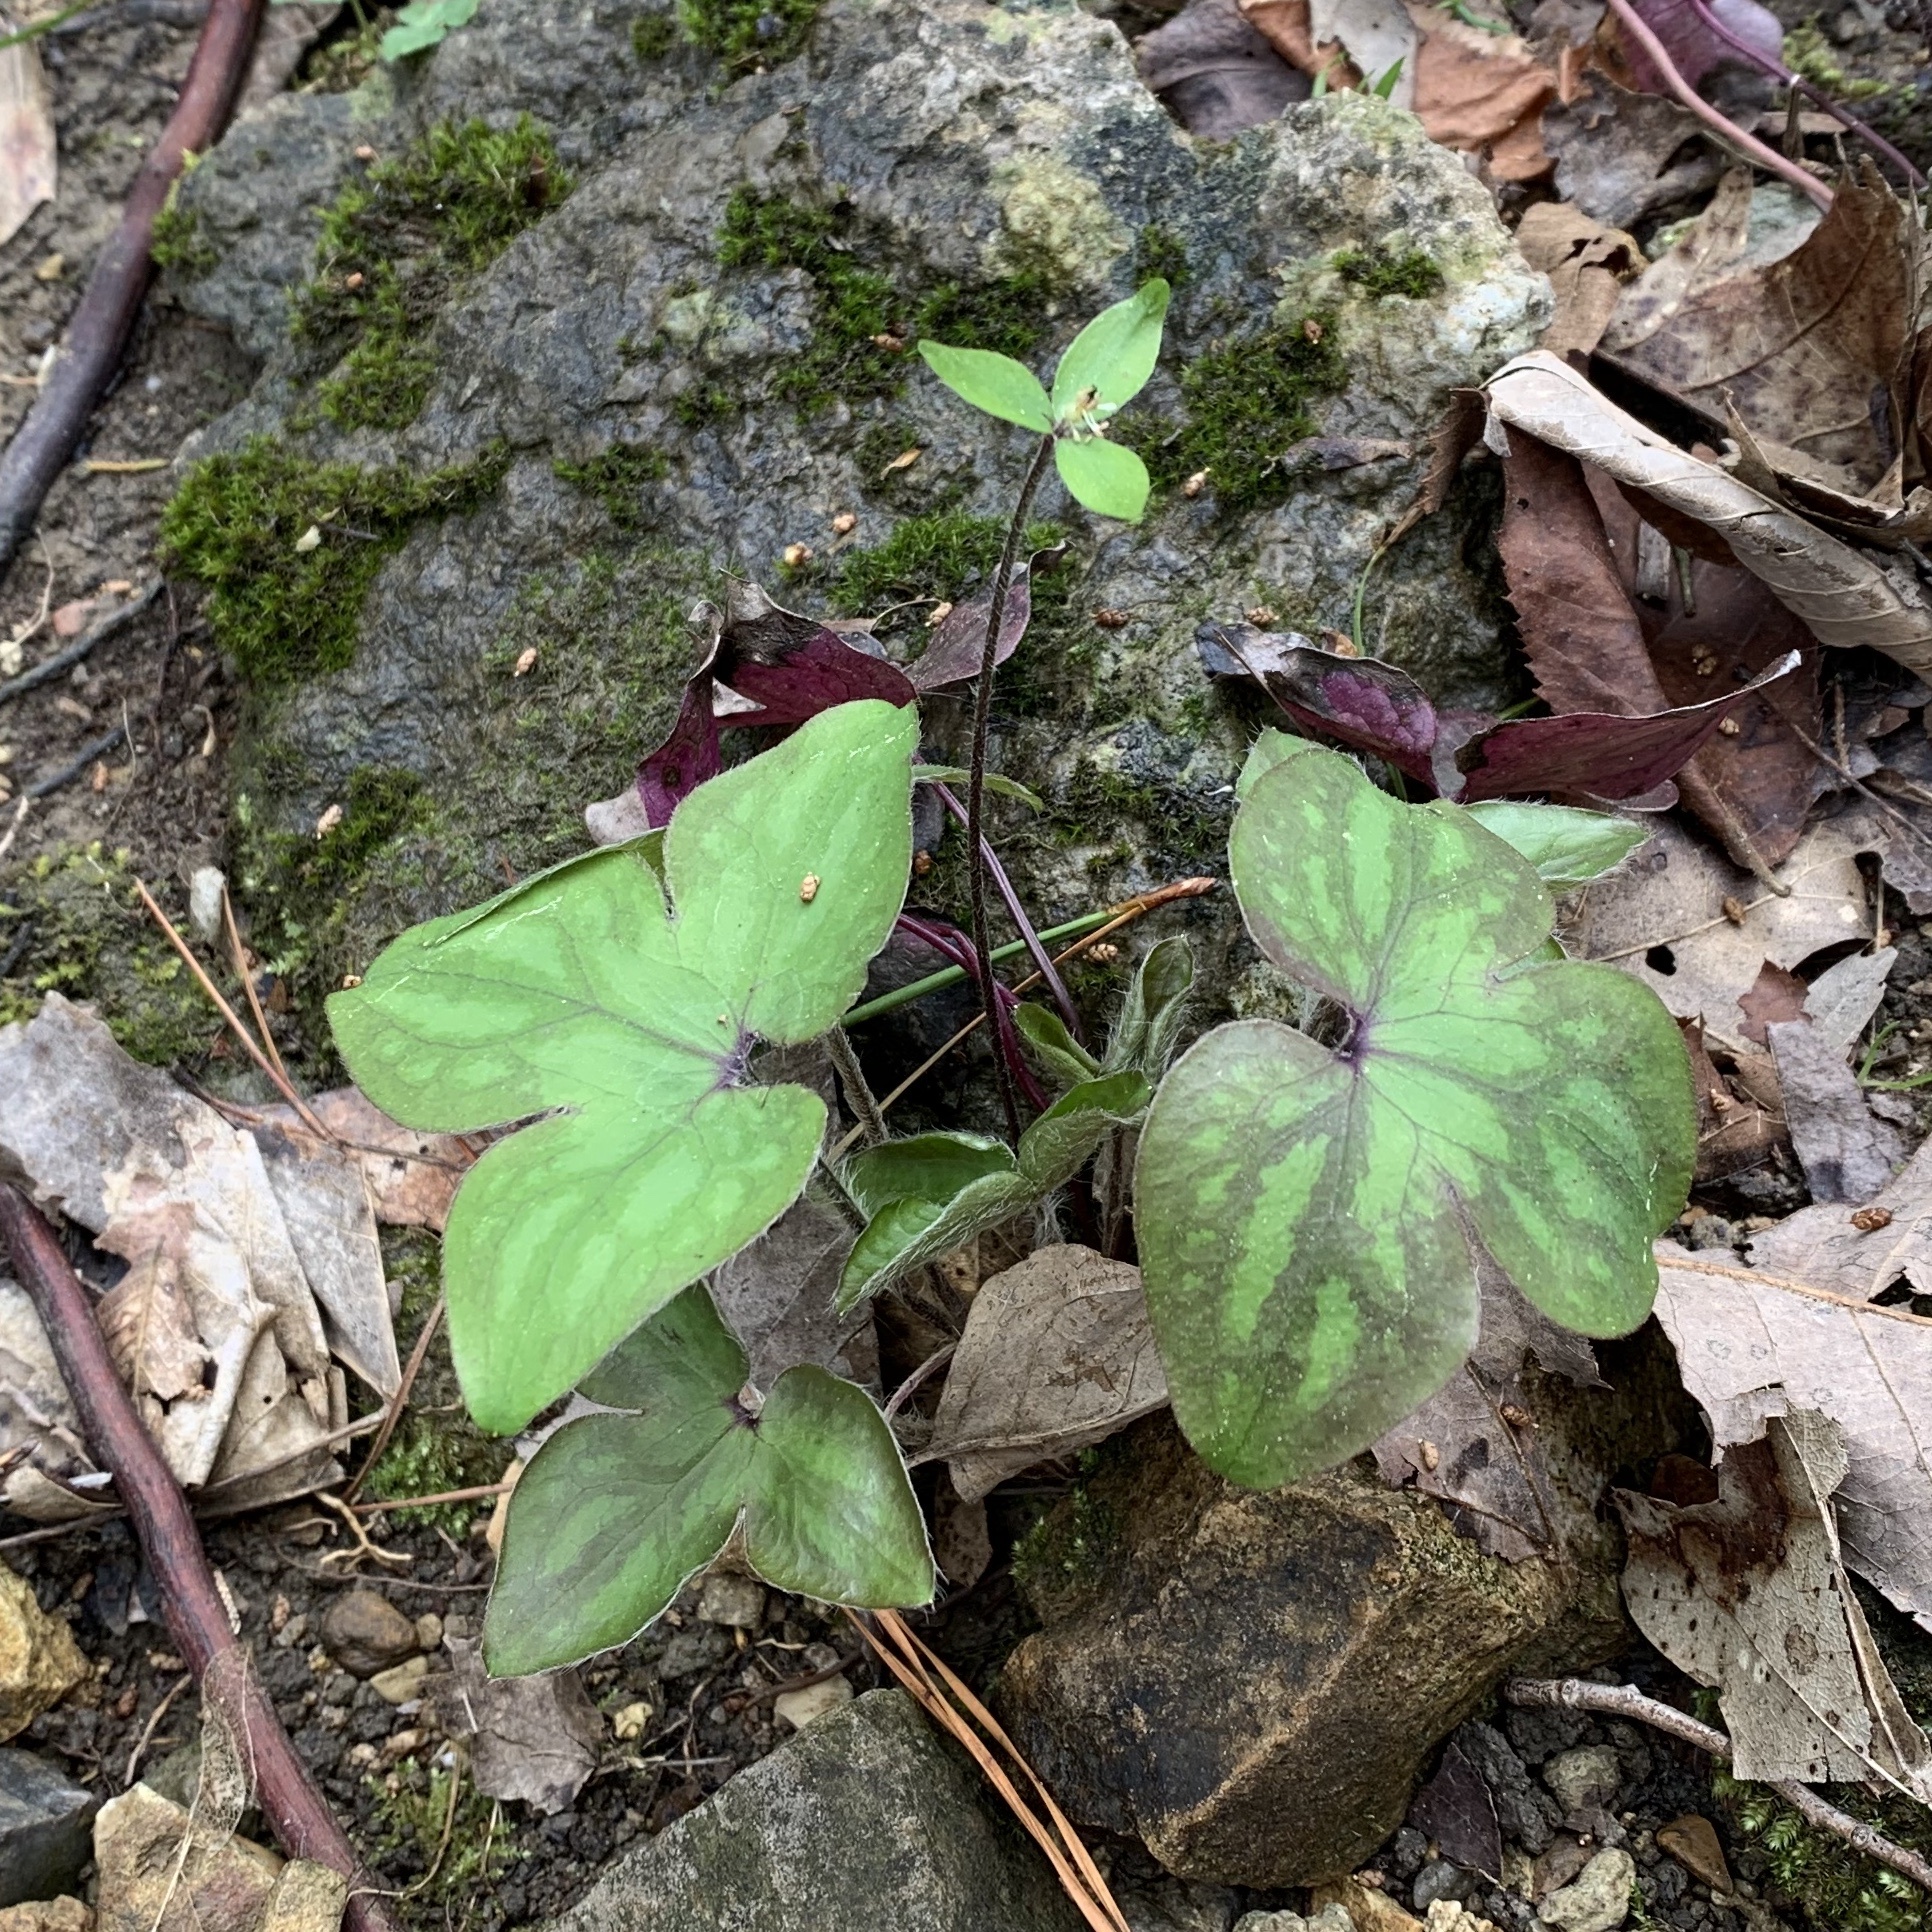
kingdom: Plantae
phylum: Tracheophyta
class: Magnoliopsida
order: Ranunculales
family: Ranunculaceae
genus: Hepatica
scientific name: Hepatica acutiloba
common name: Sharp-lobed hepatica
